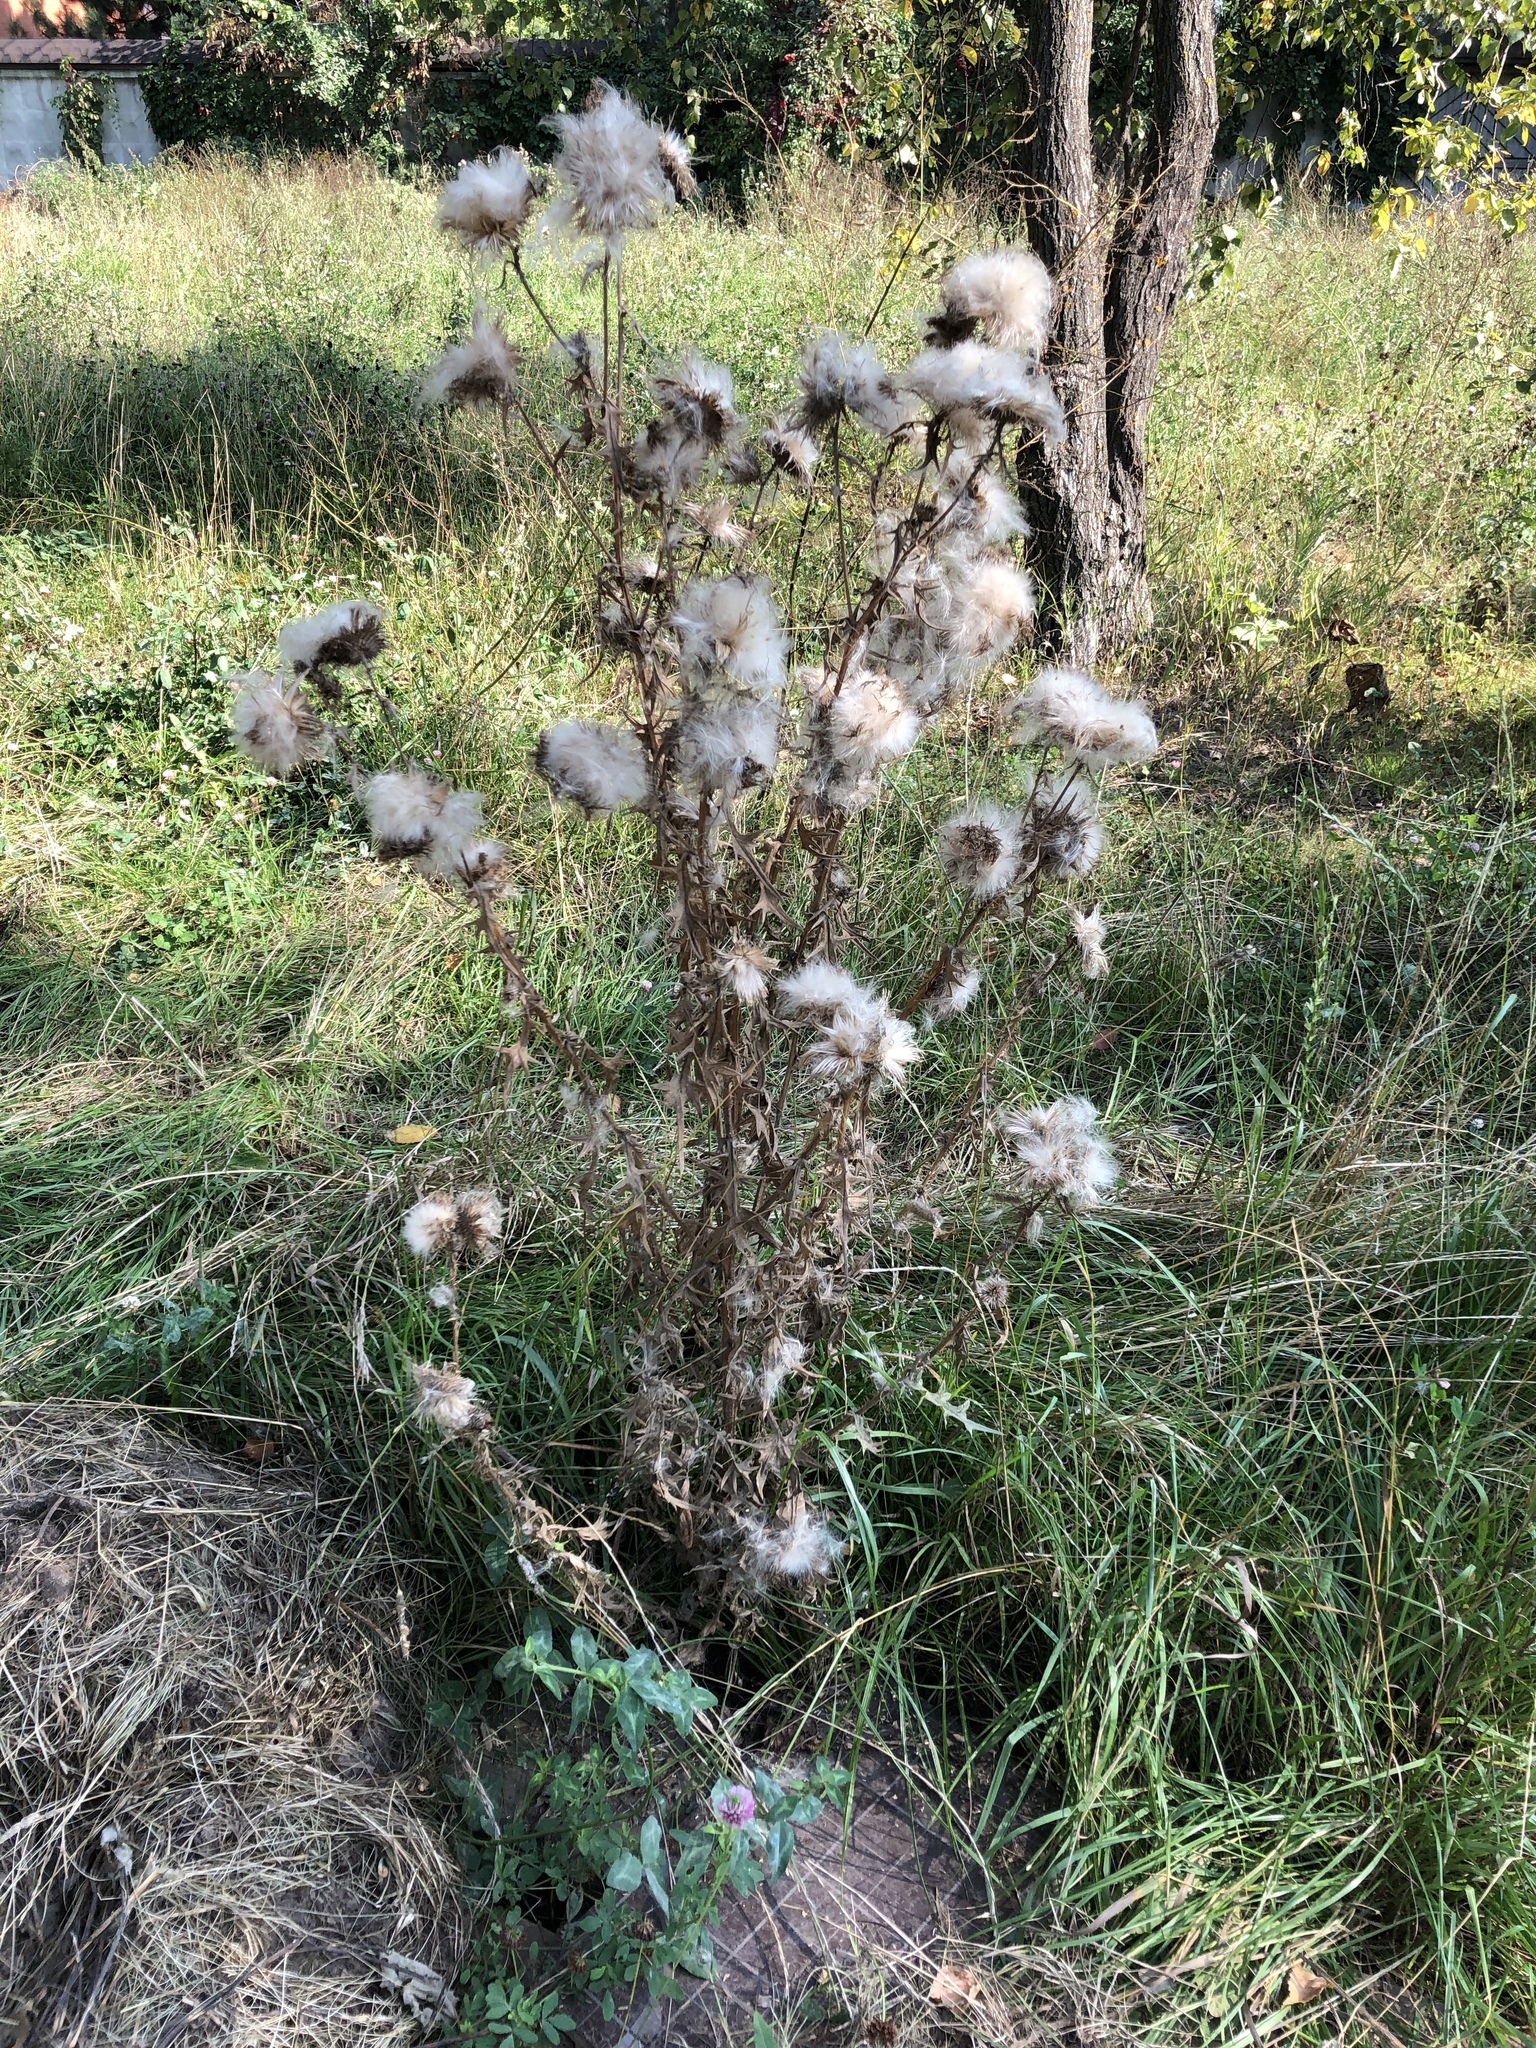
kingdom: Plantae
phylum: Tracheophyta
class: Magnoliopsida
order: Asterales
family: Asteraceae
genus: Cirsium
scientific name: Cirsium vulgare
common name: Bull thistle
